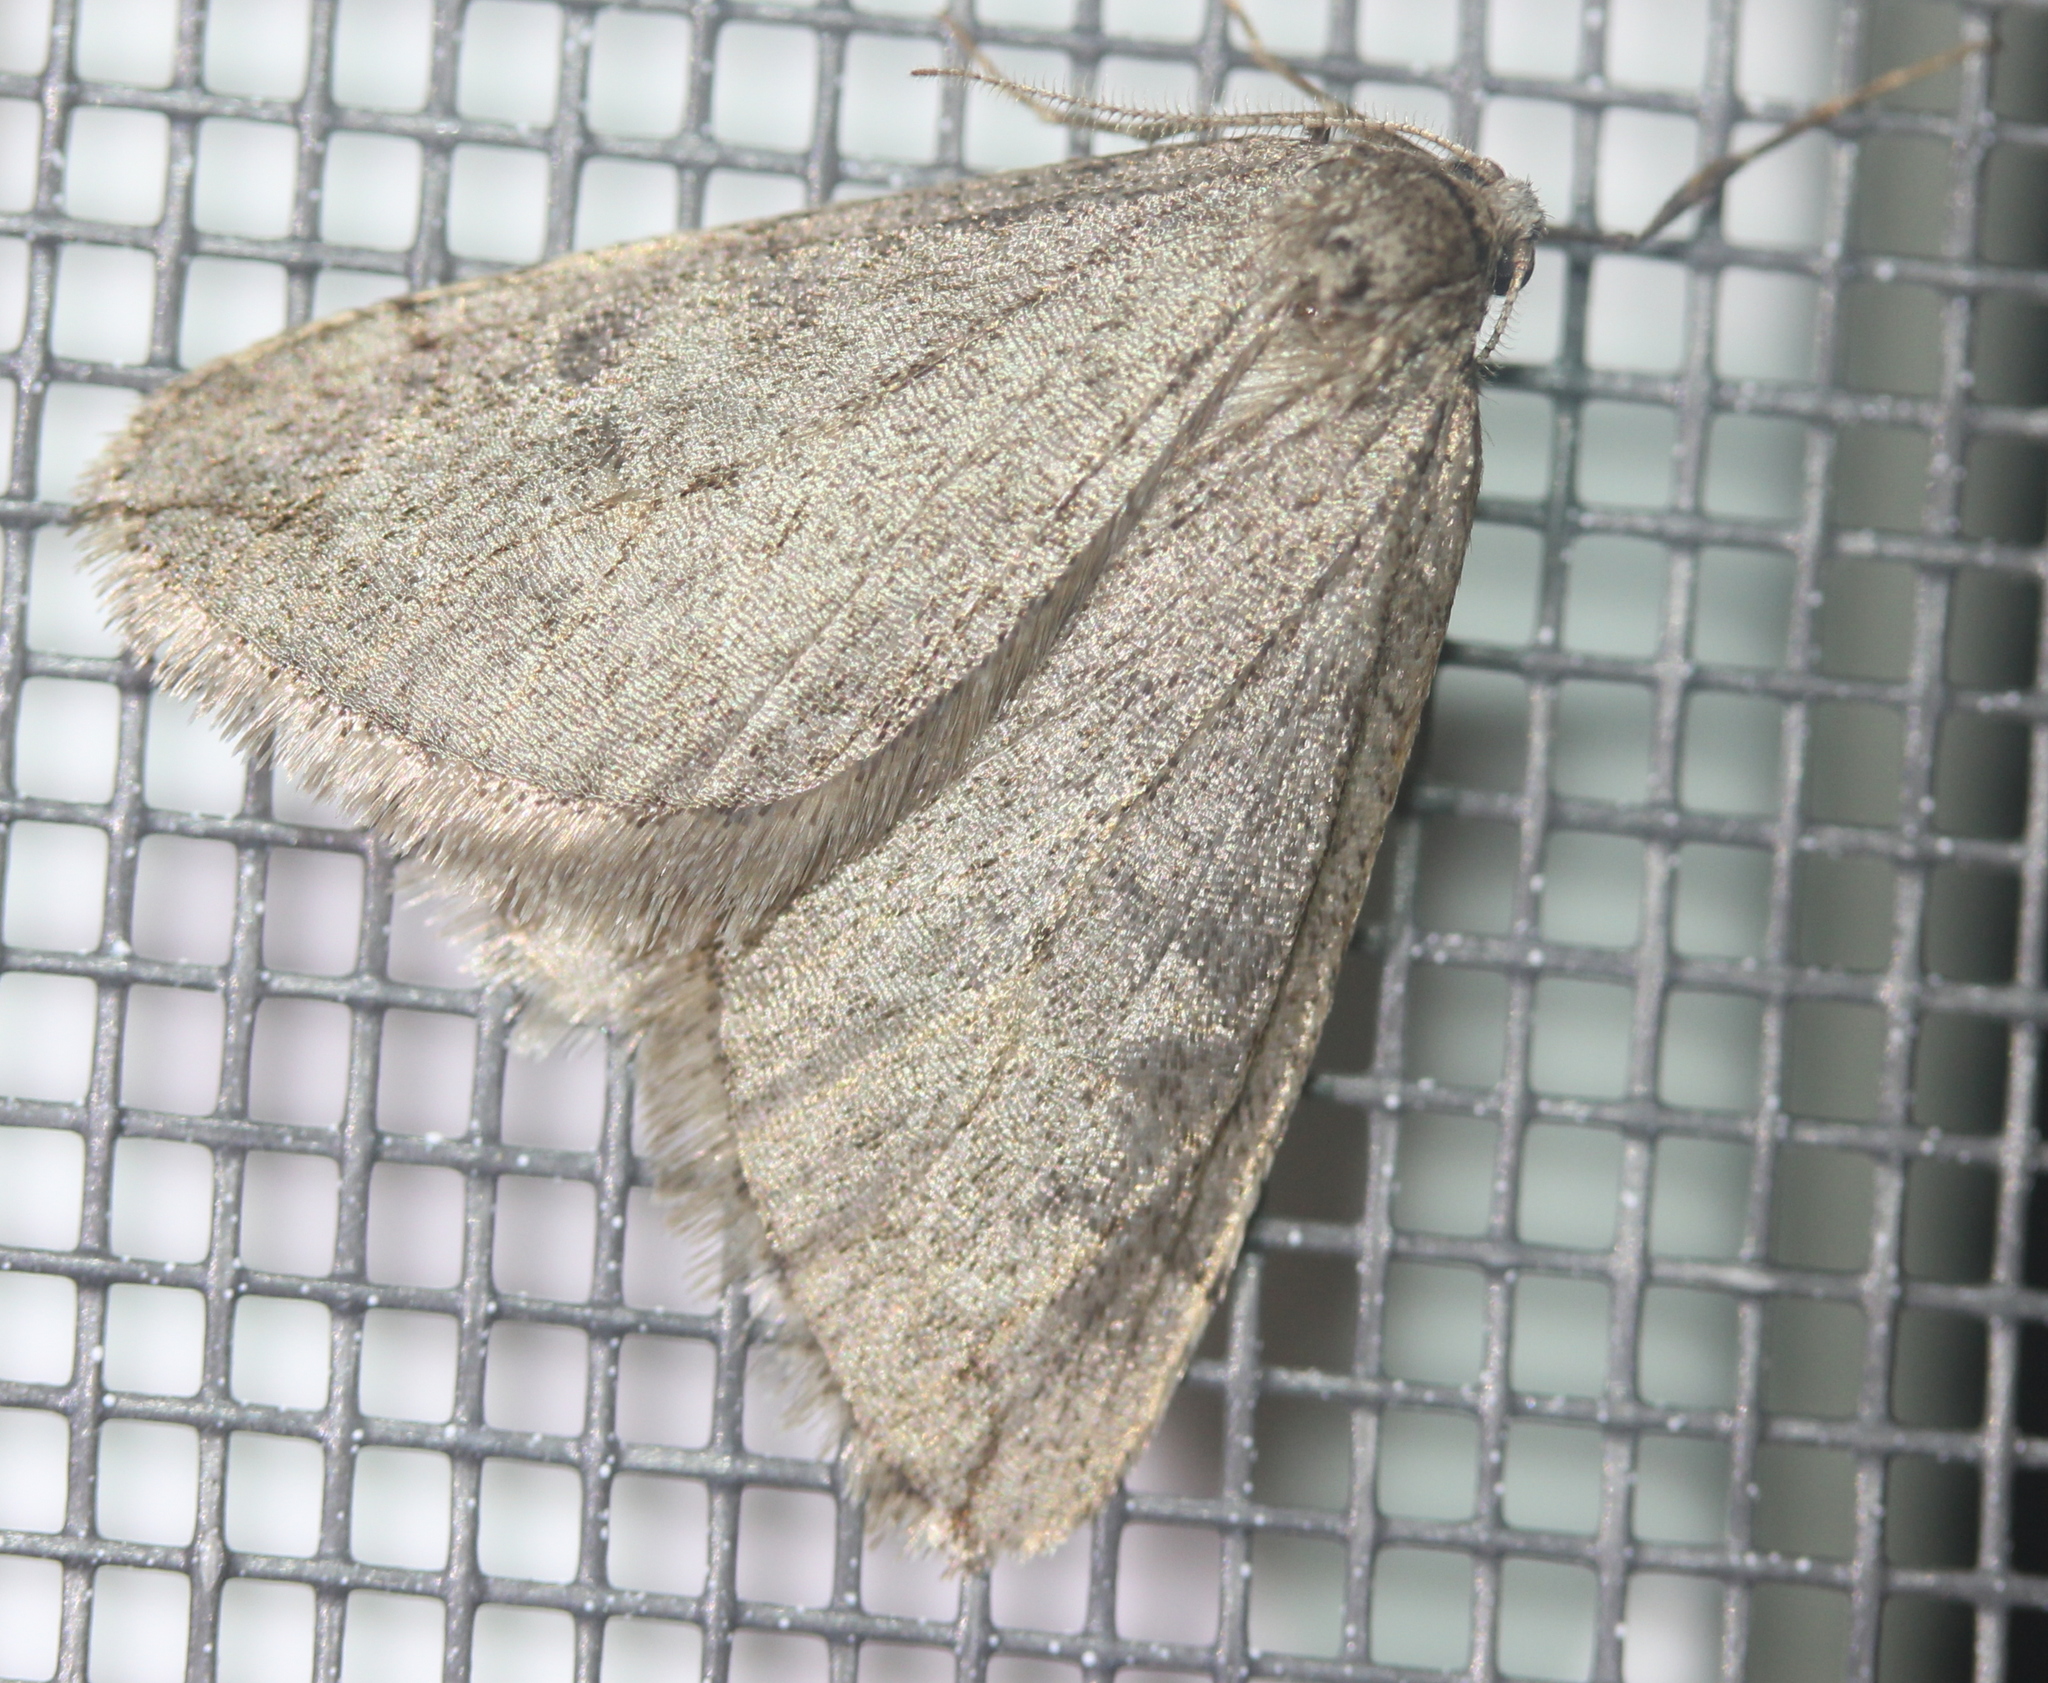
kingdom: Animalia
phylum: Arthropoda
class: Insecta
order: Lepidoptera
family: Geometridae
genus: Paleacrita
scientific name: Paleacrita vernata
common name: Spring cankerworm
